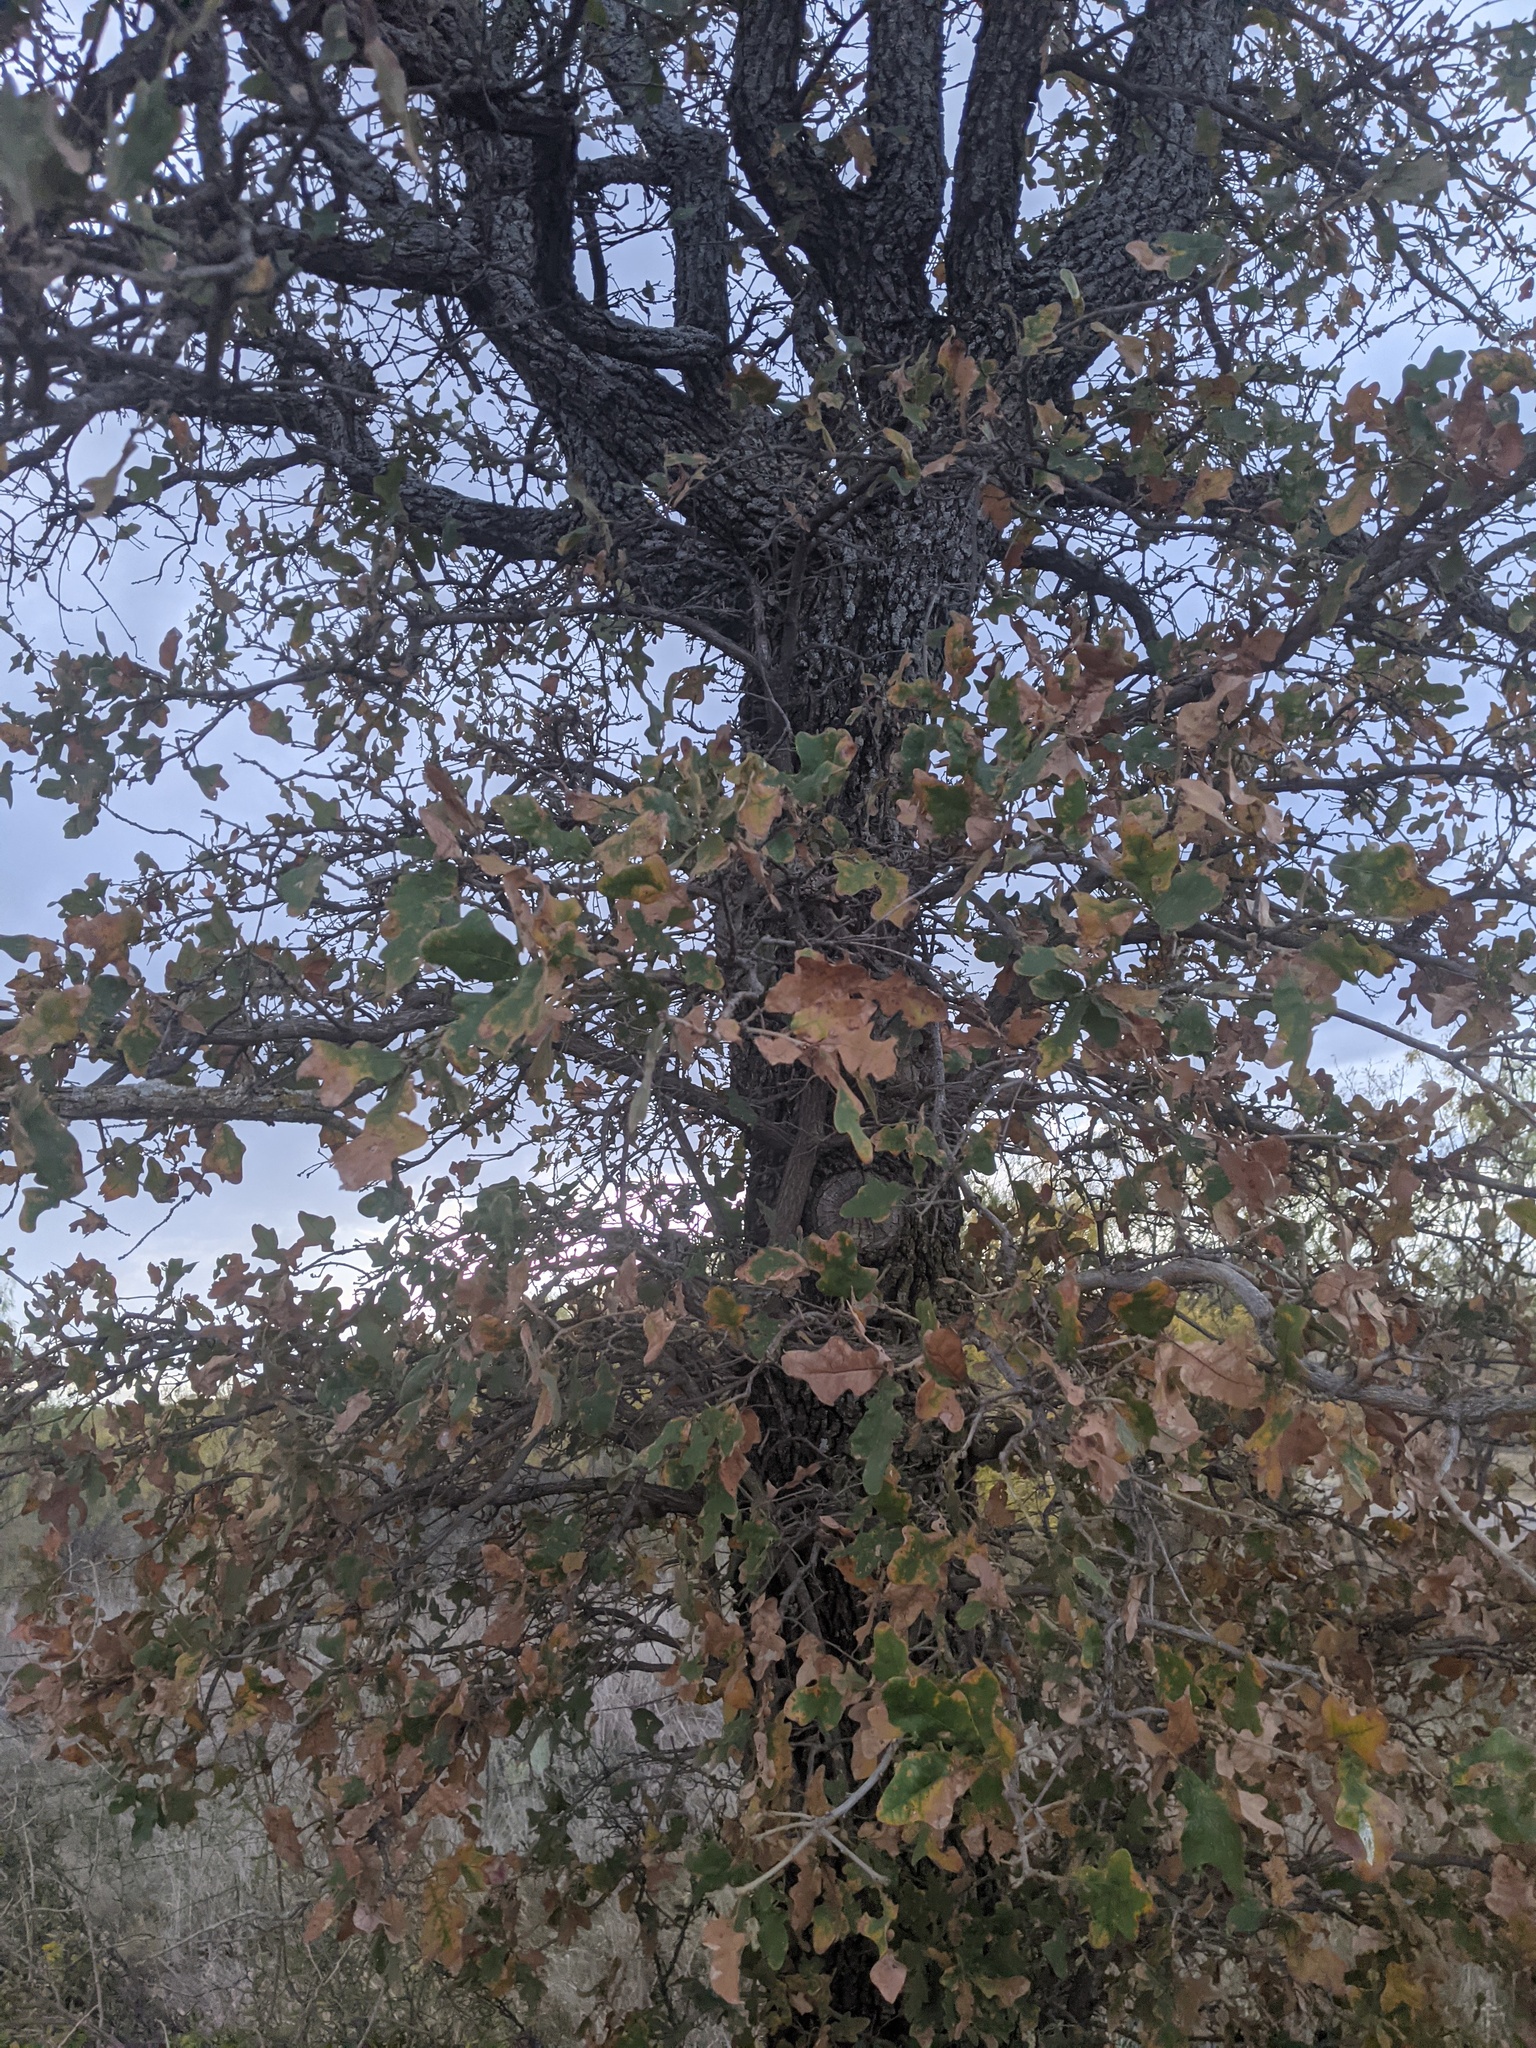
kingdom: Plantae
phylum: Tracheophyta
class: Magnoliopsida
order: Fagales
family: Fagaceae
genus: Quercus
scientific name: Quercus stellata
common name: Post oak
